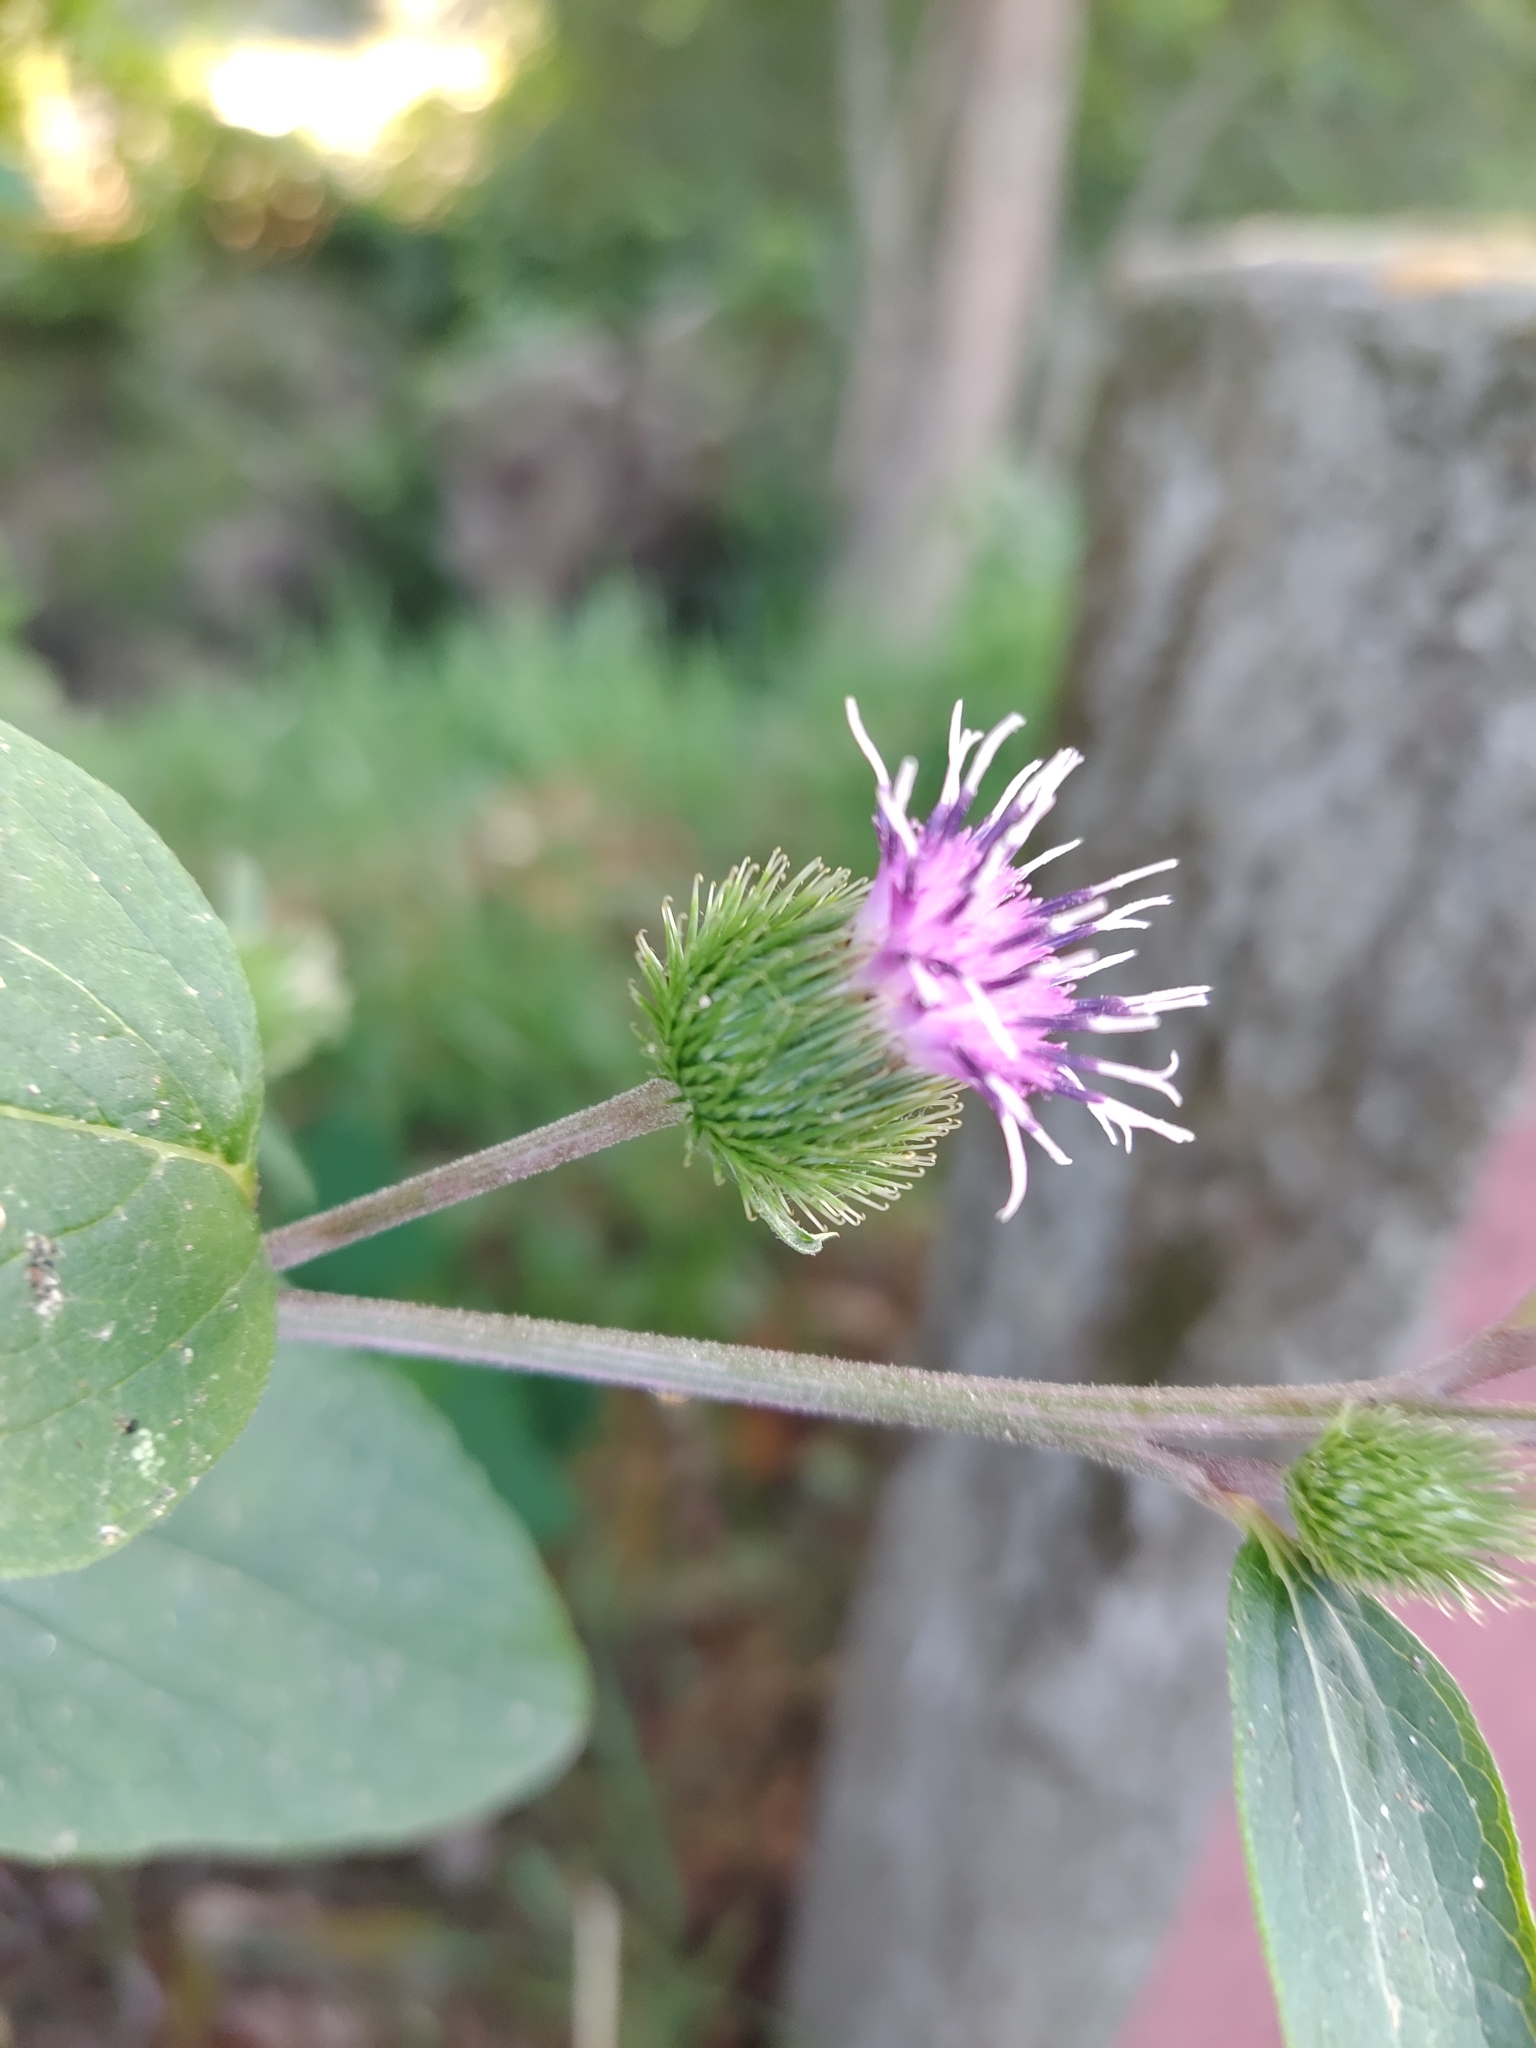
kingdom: Plantae
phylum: Tracheophyta
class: Magnoliopsida
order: Asterales
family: Asteraceae
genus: Arctium
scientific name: Arctium minus
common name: Lesser burdock
